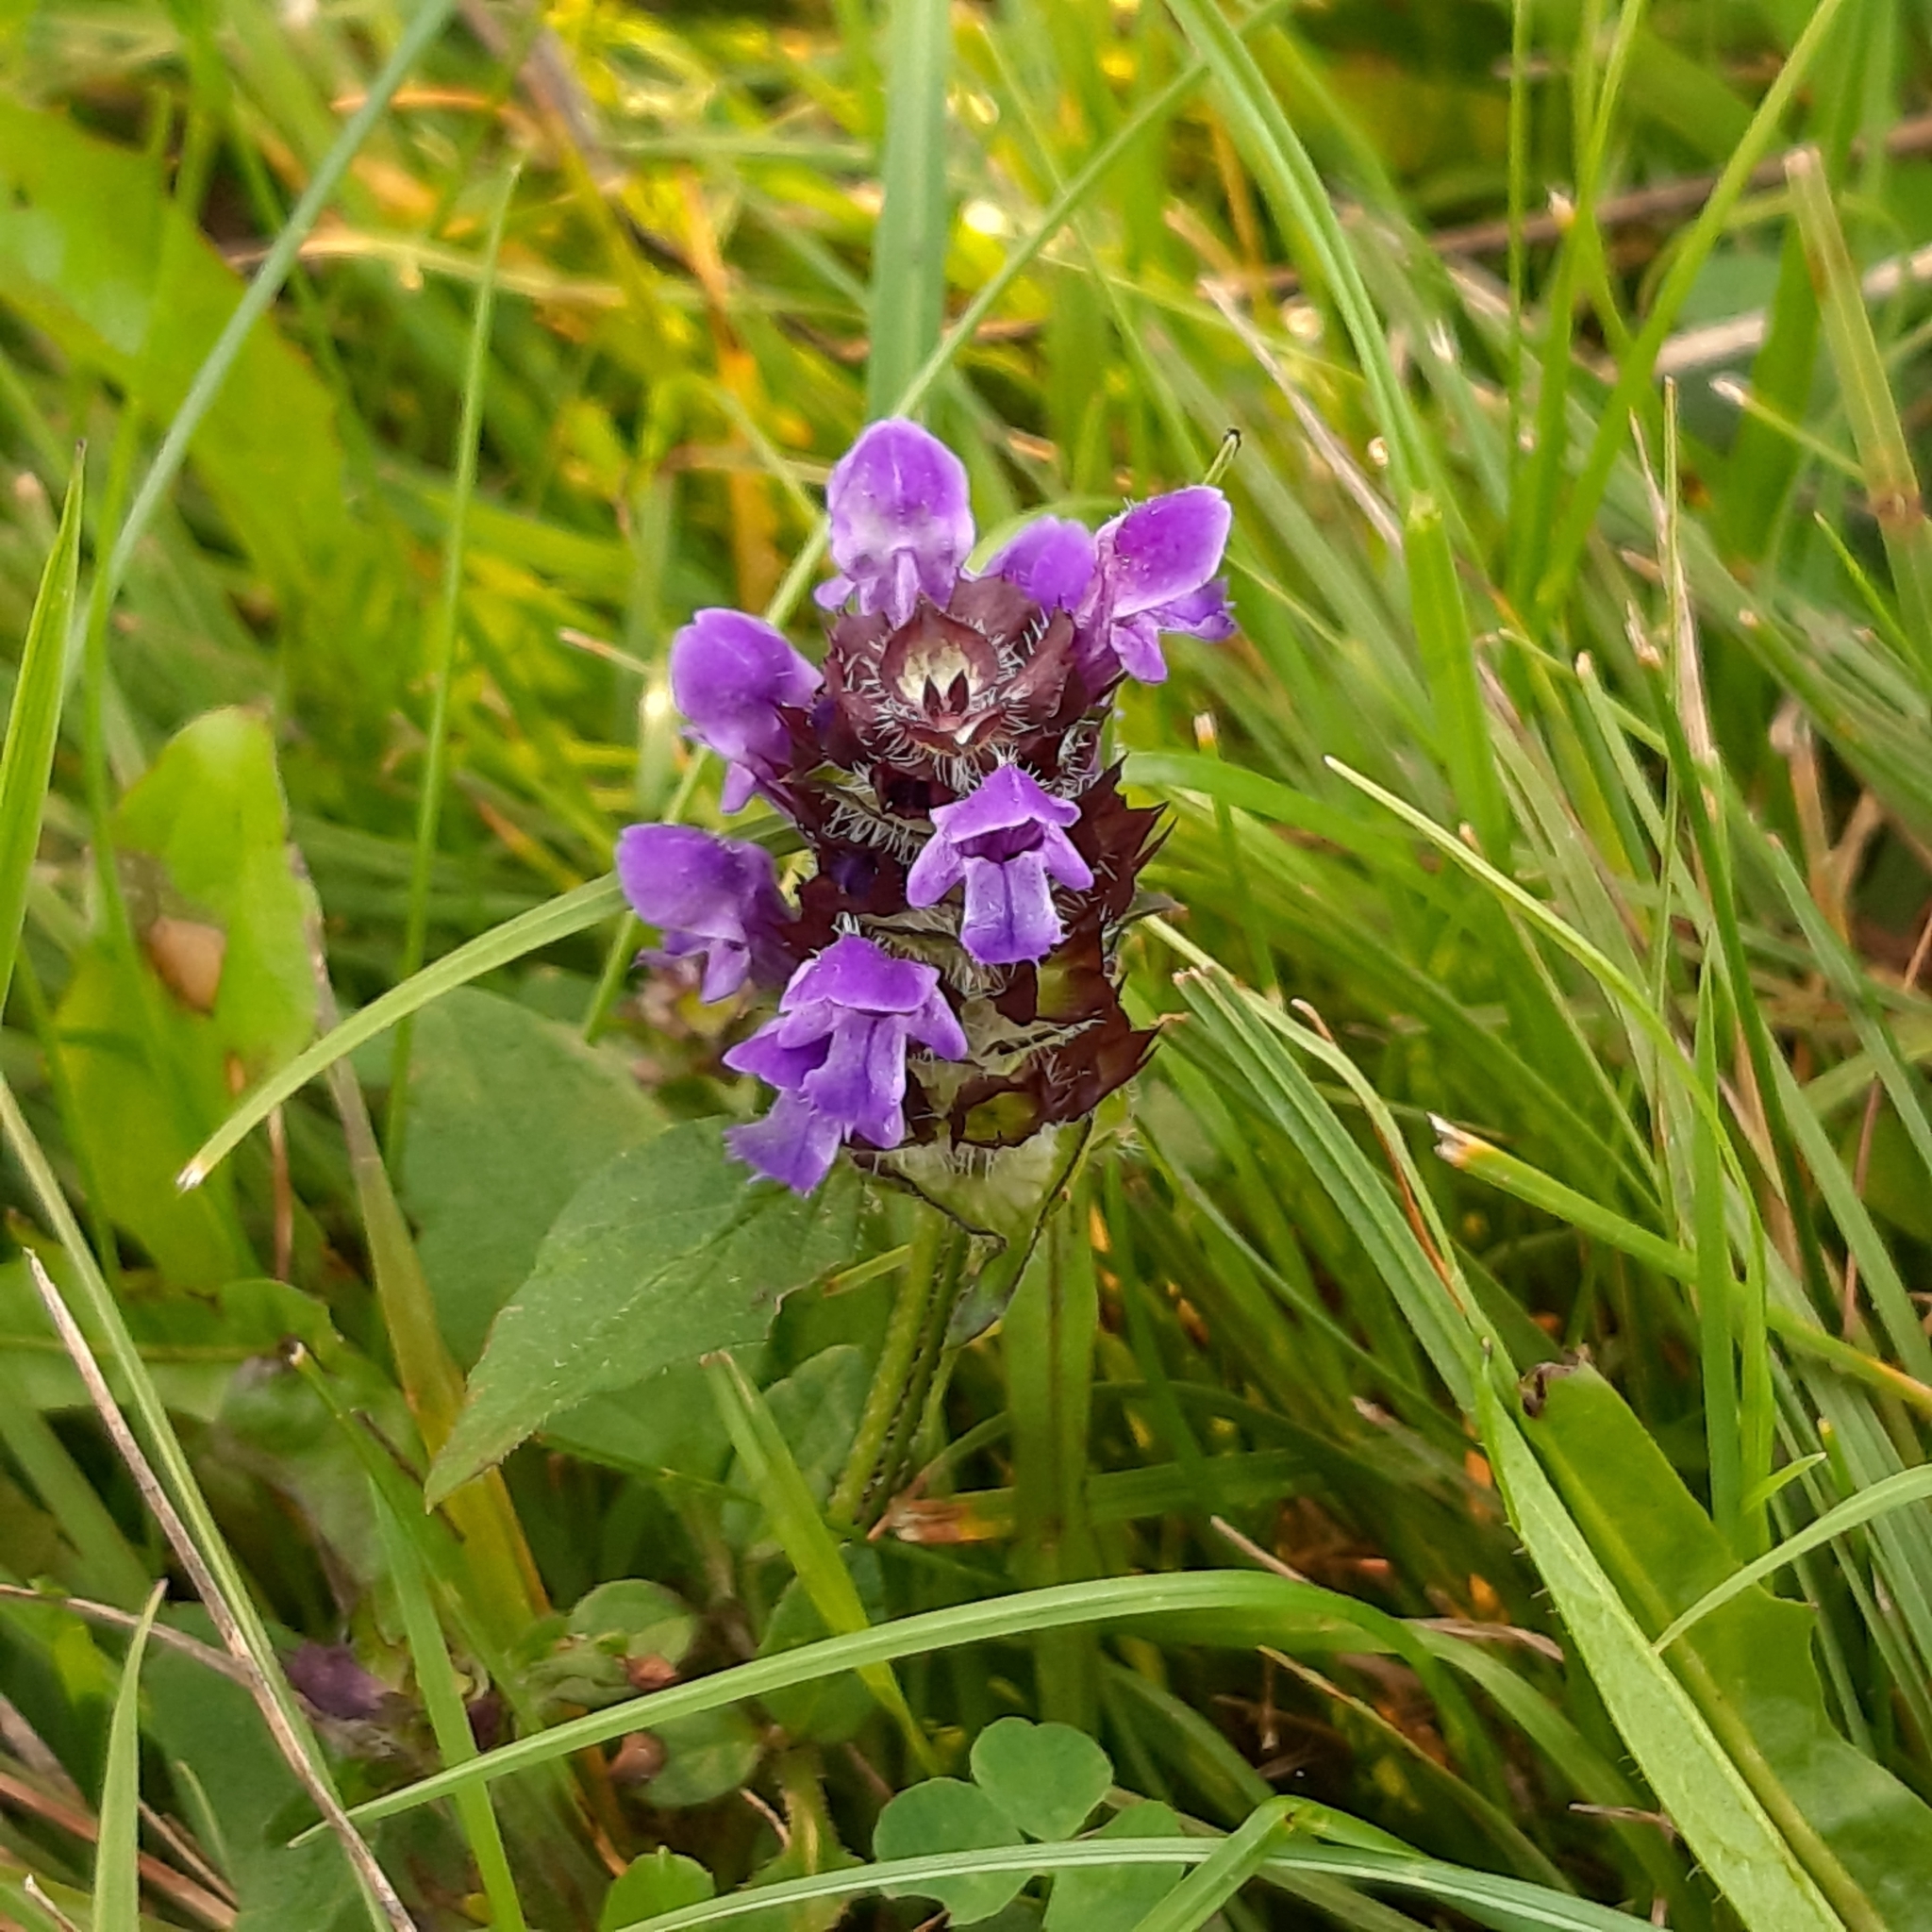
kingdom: Plantae
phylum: Tracheophyta
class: Magnoliopsida
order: Lamiales
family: Lamiaceae
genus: Prunella
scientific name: Prunella vulgaris
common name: Heal-all
